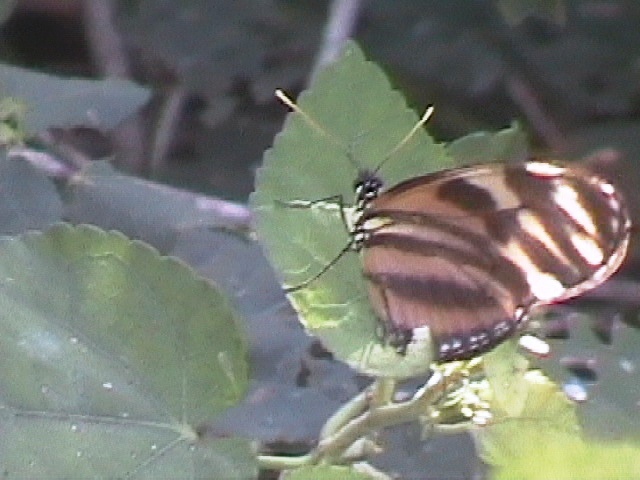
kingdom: Animalia
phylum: Arthropoda
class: Insecta
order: Lepidoptera
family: Nymphalidae
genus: Lycorea
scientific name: Lycorea eva
